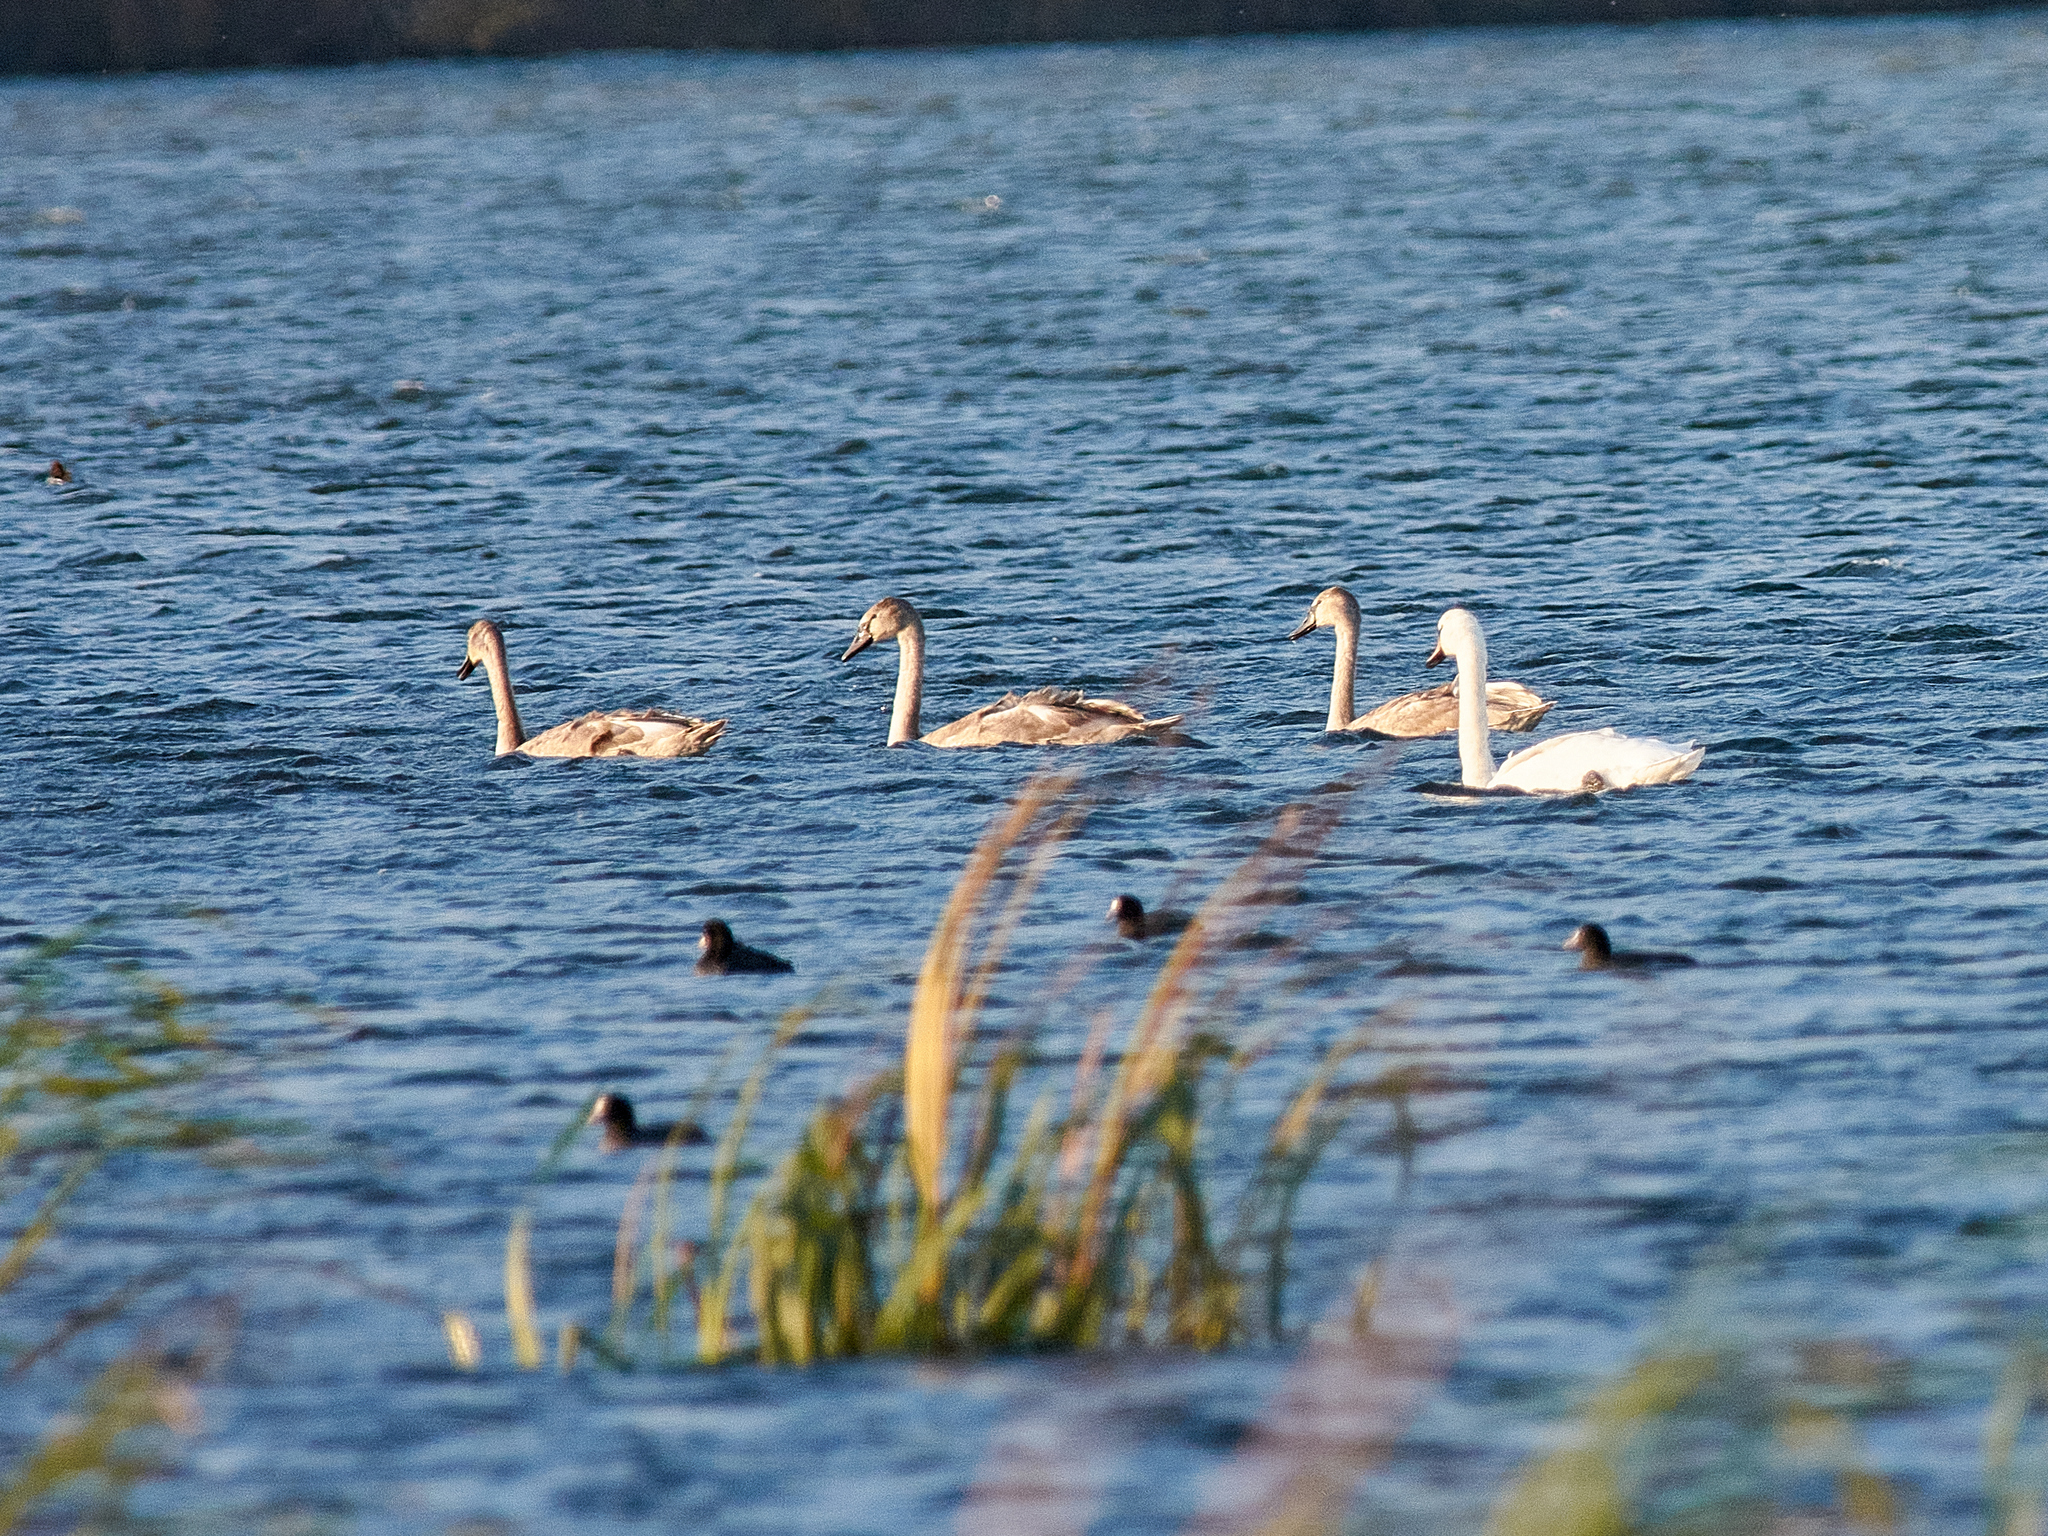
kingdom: Animalia
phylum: Chordata
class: Aves
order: Anseriformes
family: Anatidae
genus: Cygnus
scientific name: Cygnus olor
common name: Mute swan
